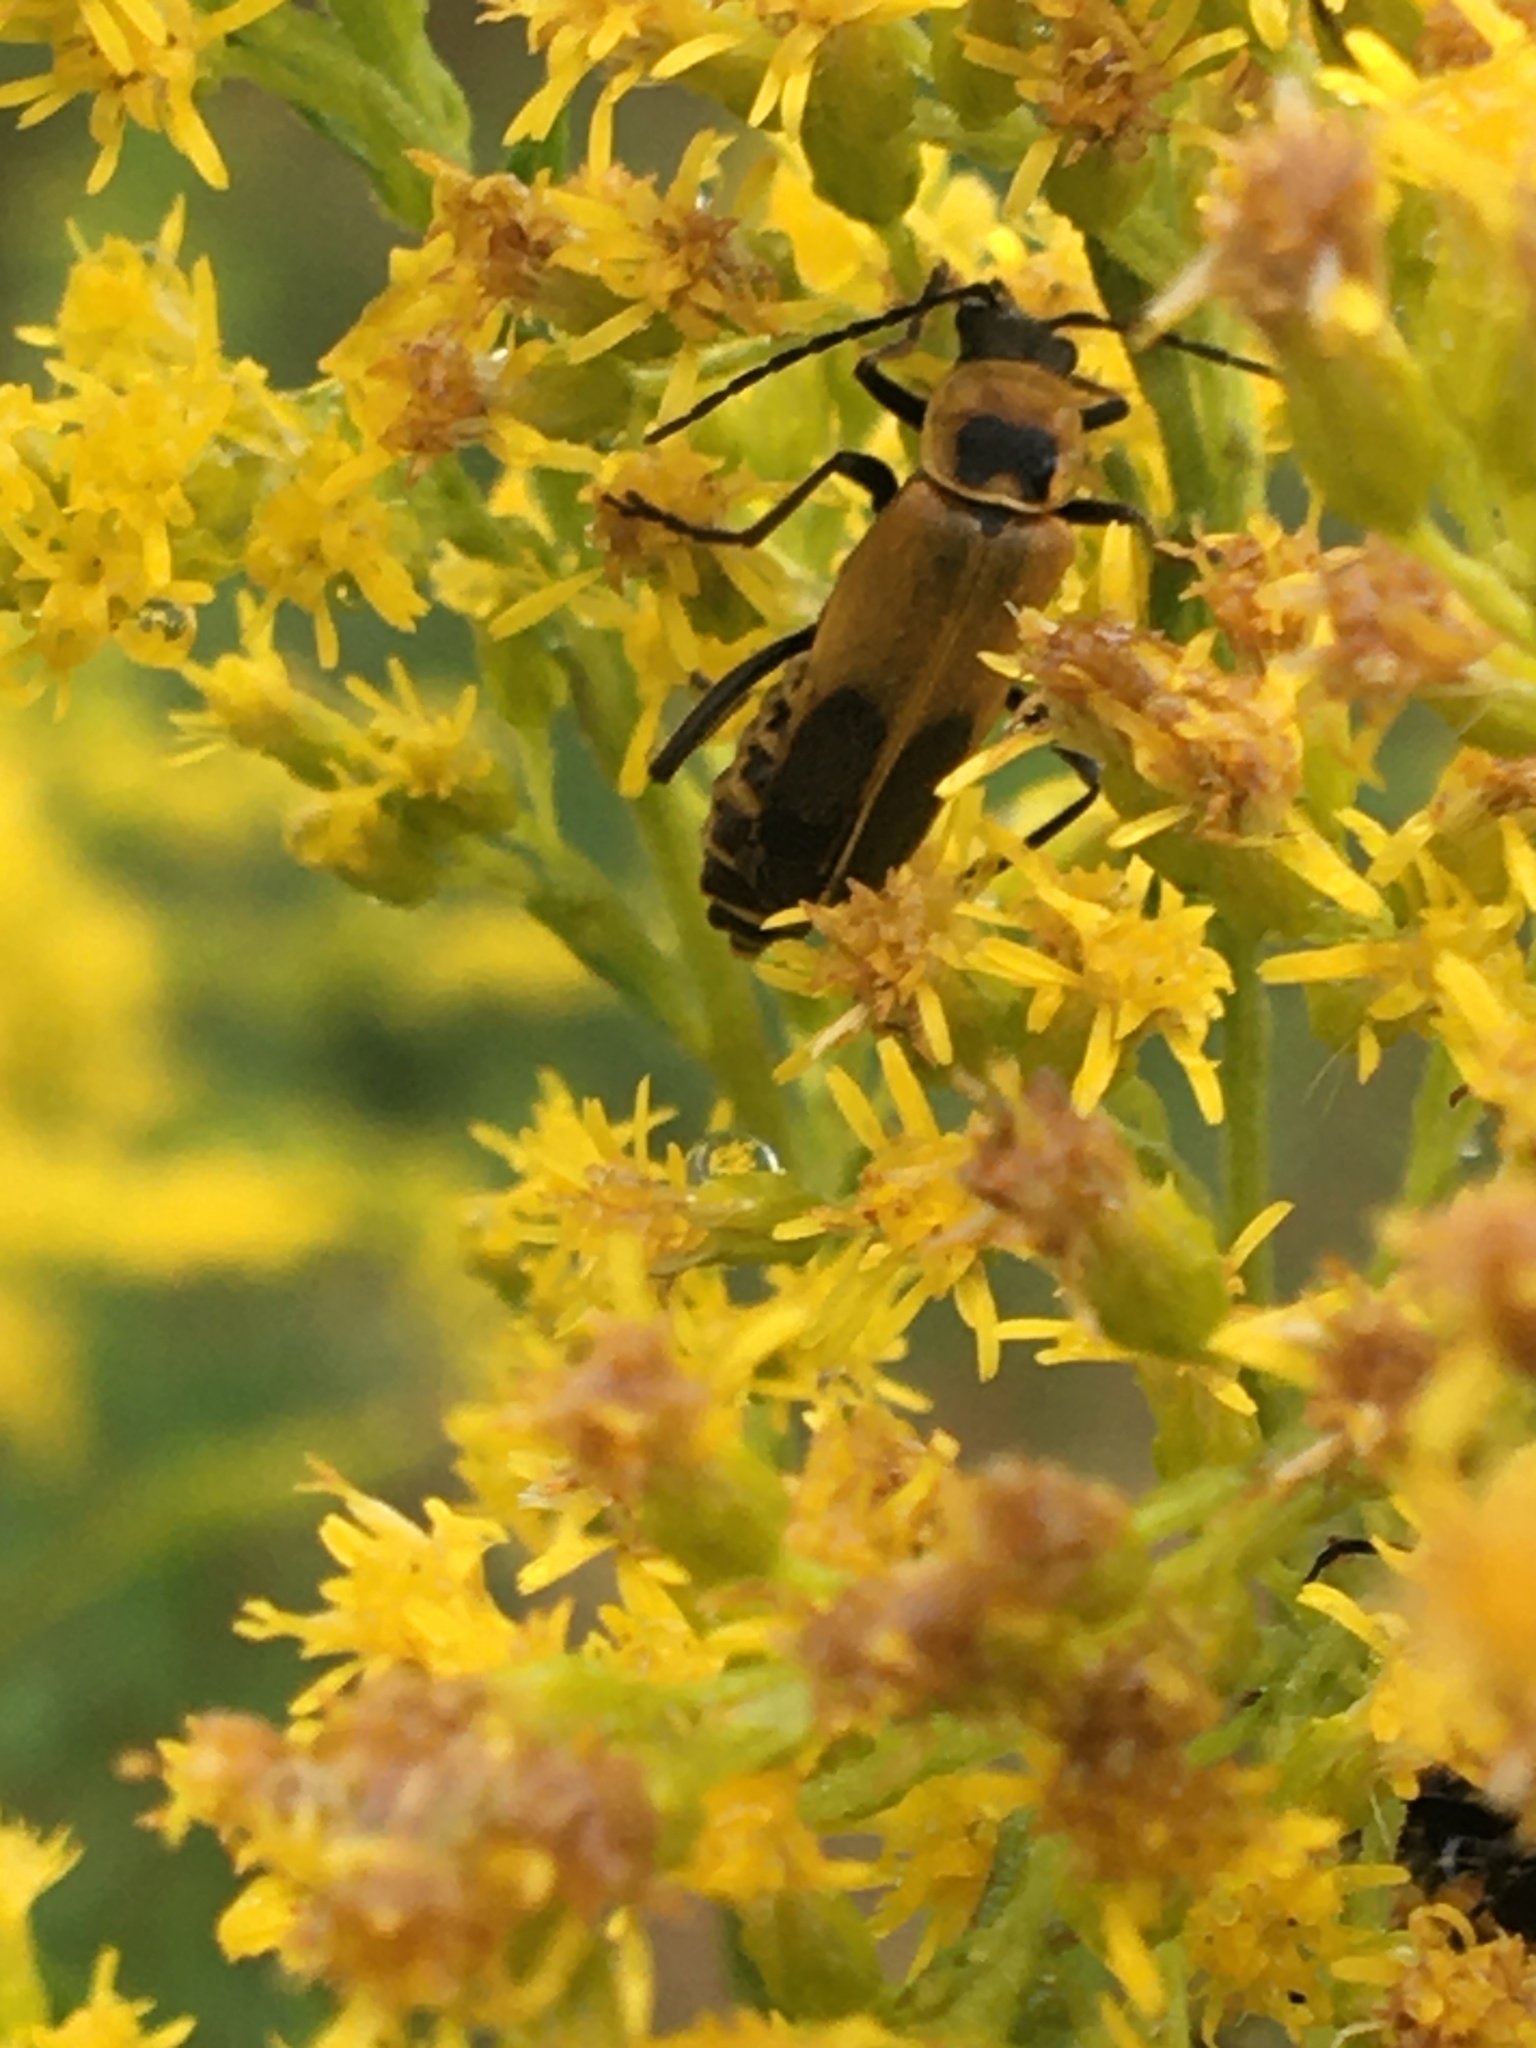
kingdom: Animalia
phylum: Arthropoda
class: Insecta
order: Coleoptera
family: Cantharidae
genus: Chauliognathus
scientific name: Chauliognathus pensylvanicus
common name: Goldenrod soldier beetle
